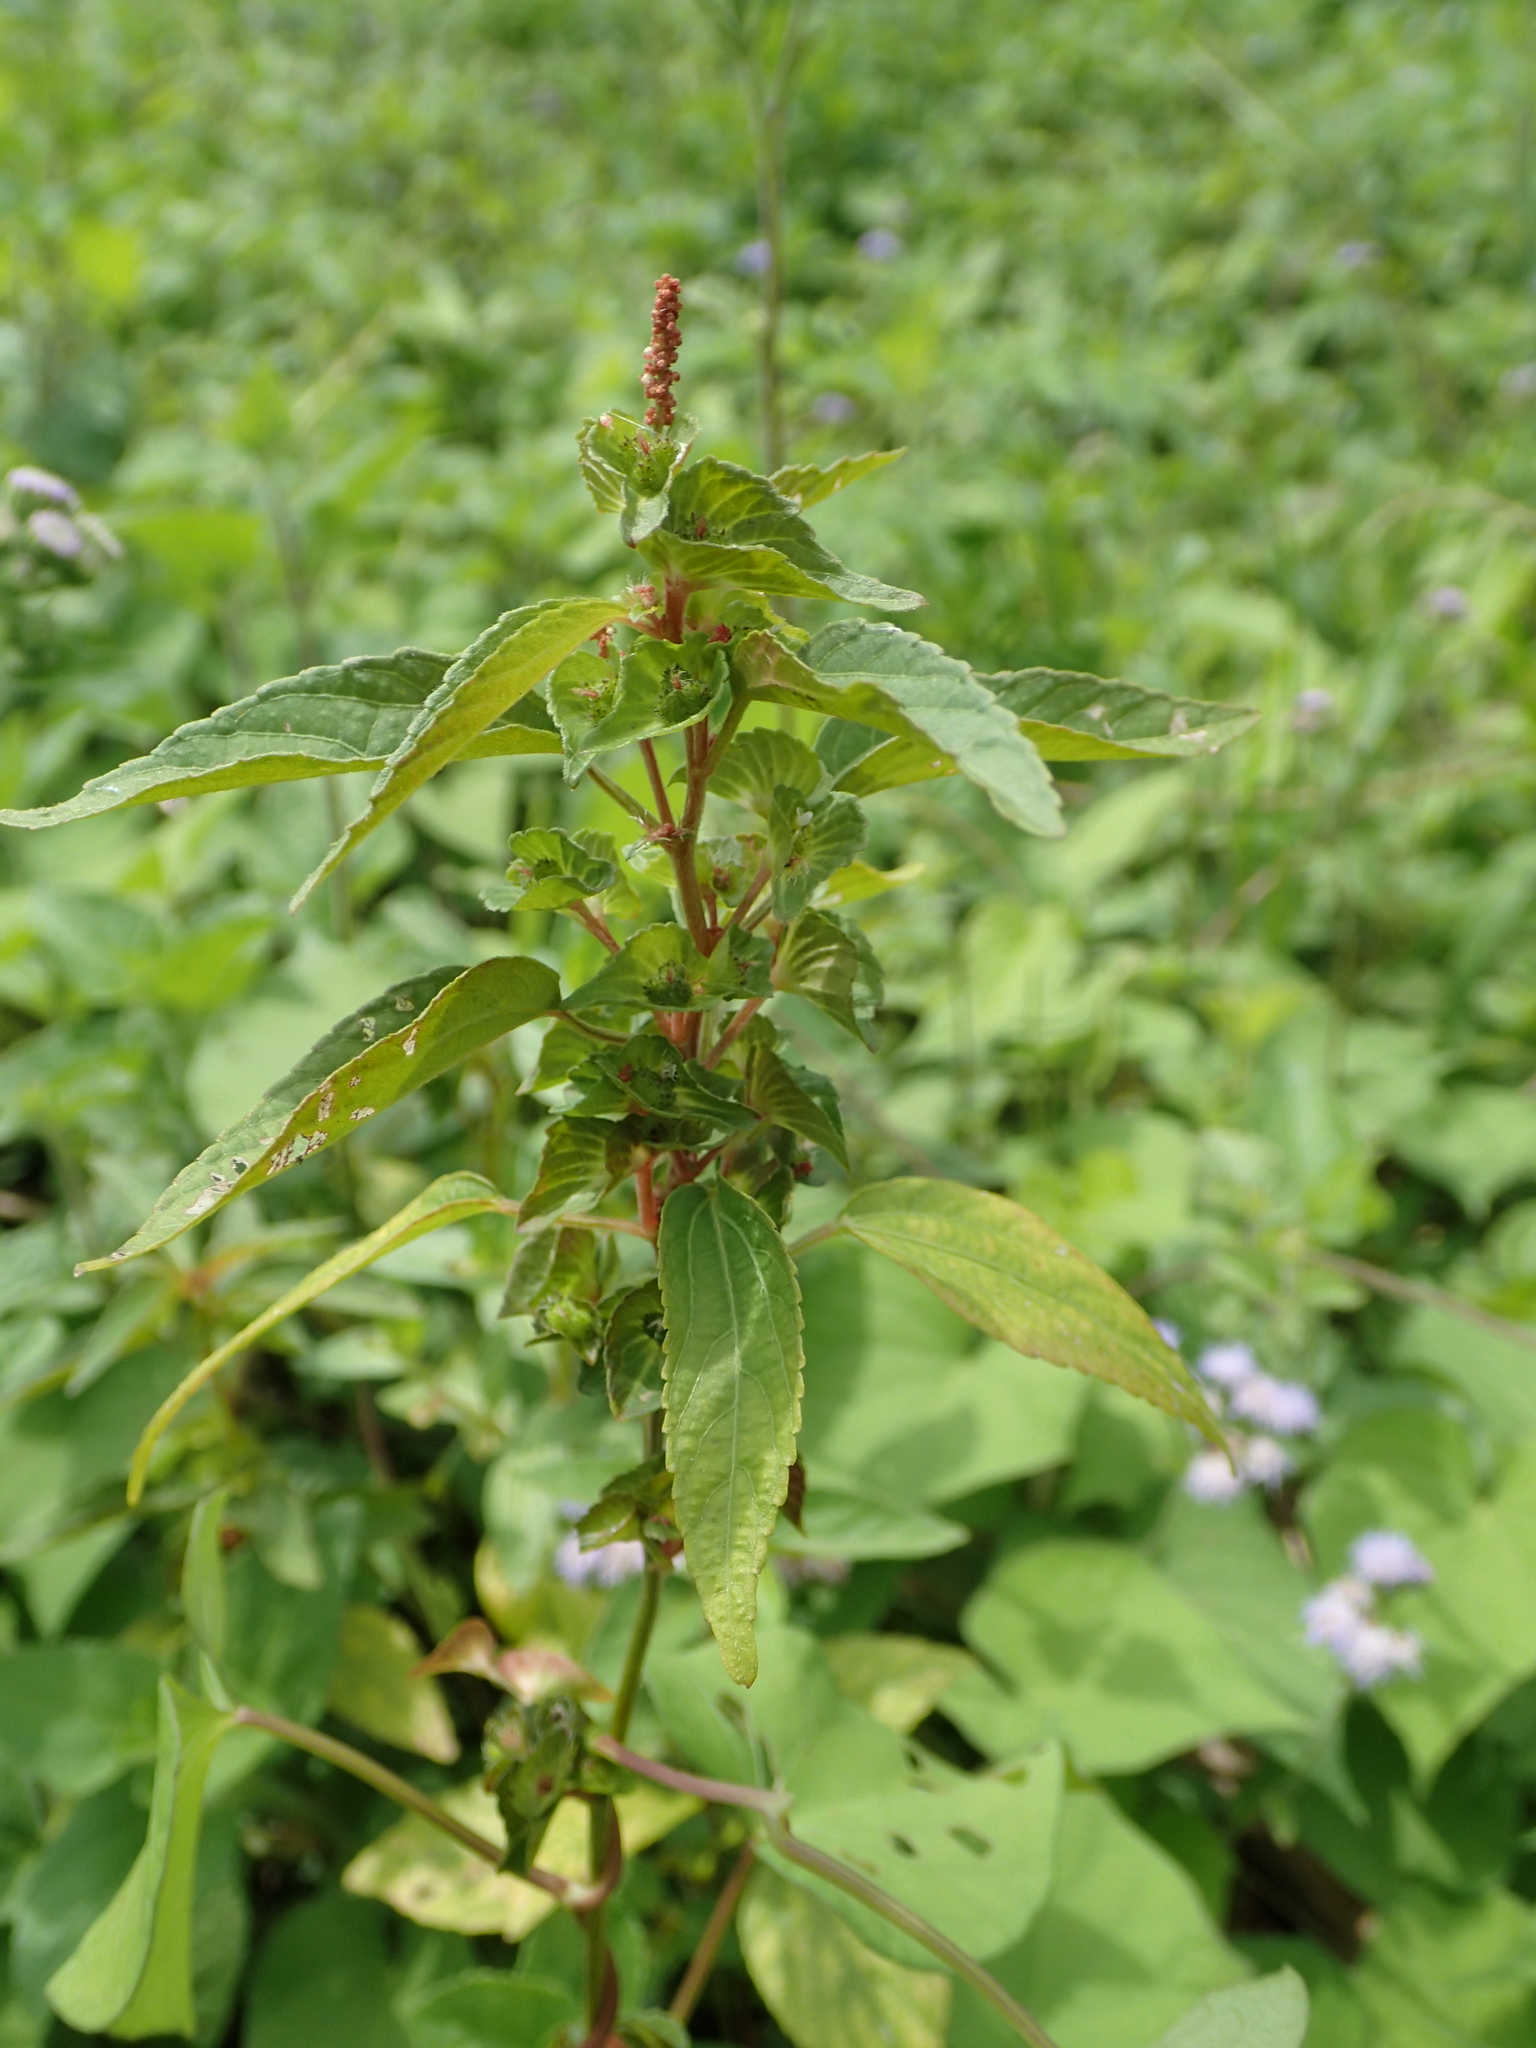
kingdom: Plantae
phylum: Tracheophyta
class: Magnoliopsida
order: Malpighiales
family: Euphorbiaceae
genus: Acalypha
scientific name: Acalypha australis
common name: Asian copperleaf
